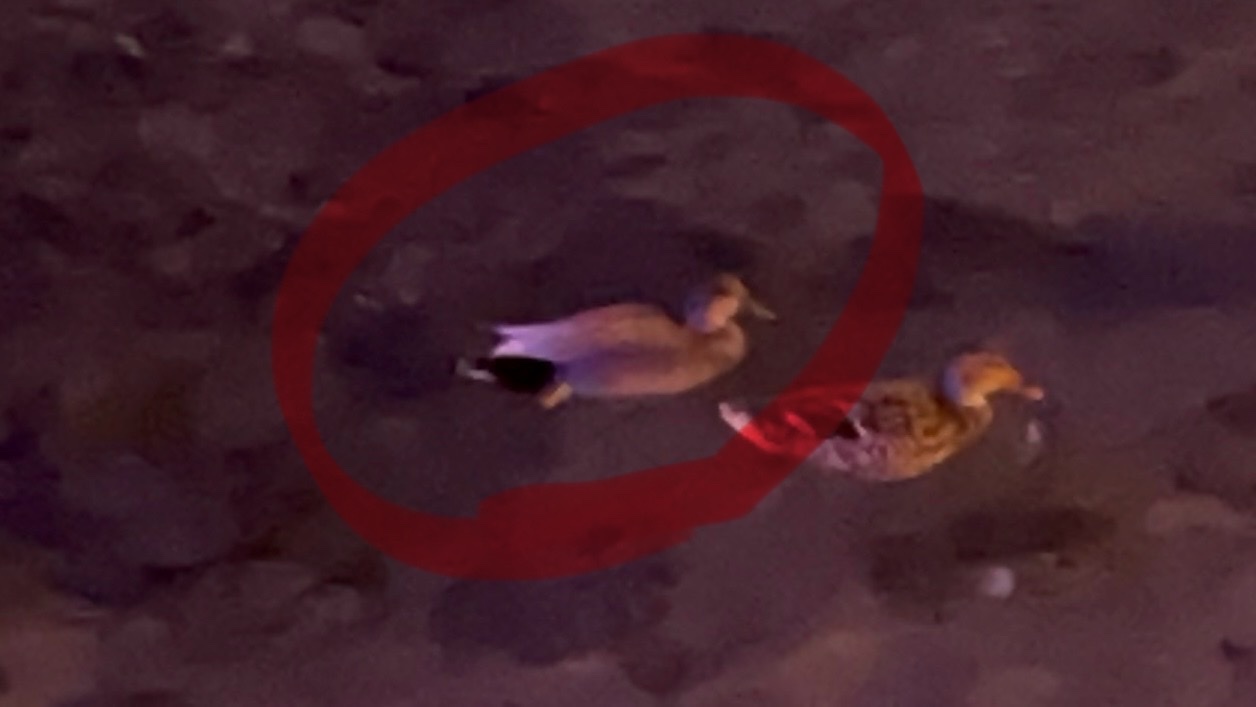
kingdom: Animalia
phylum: Chordata
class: Aves
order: Anseriformes
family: Anatidae
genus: Mareca
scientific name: Mareca strepera
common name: Gadwall
